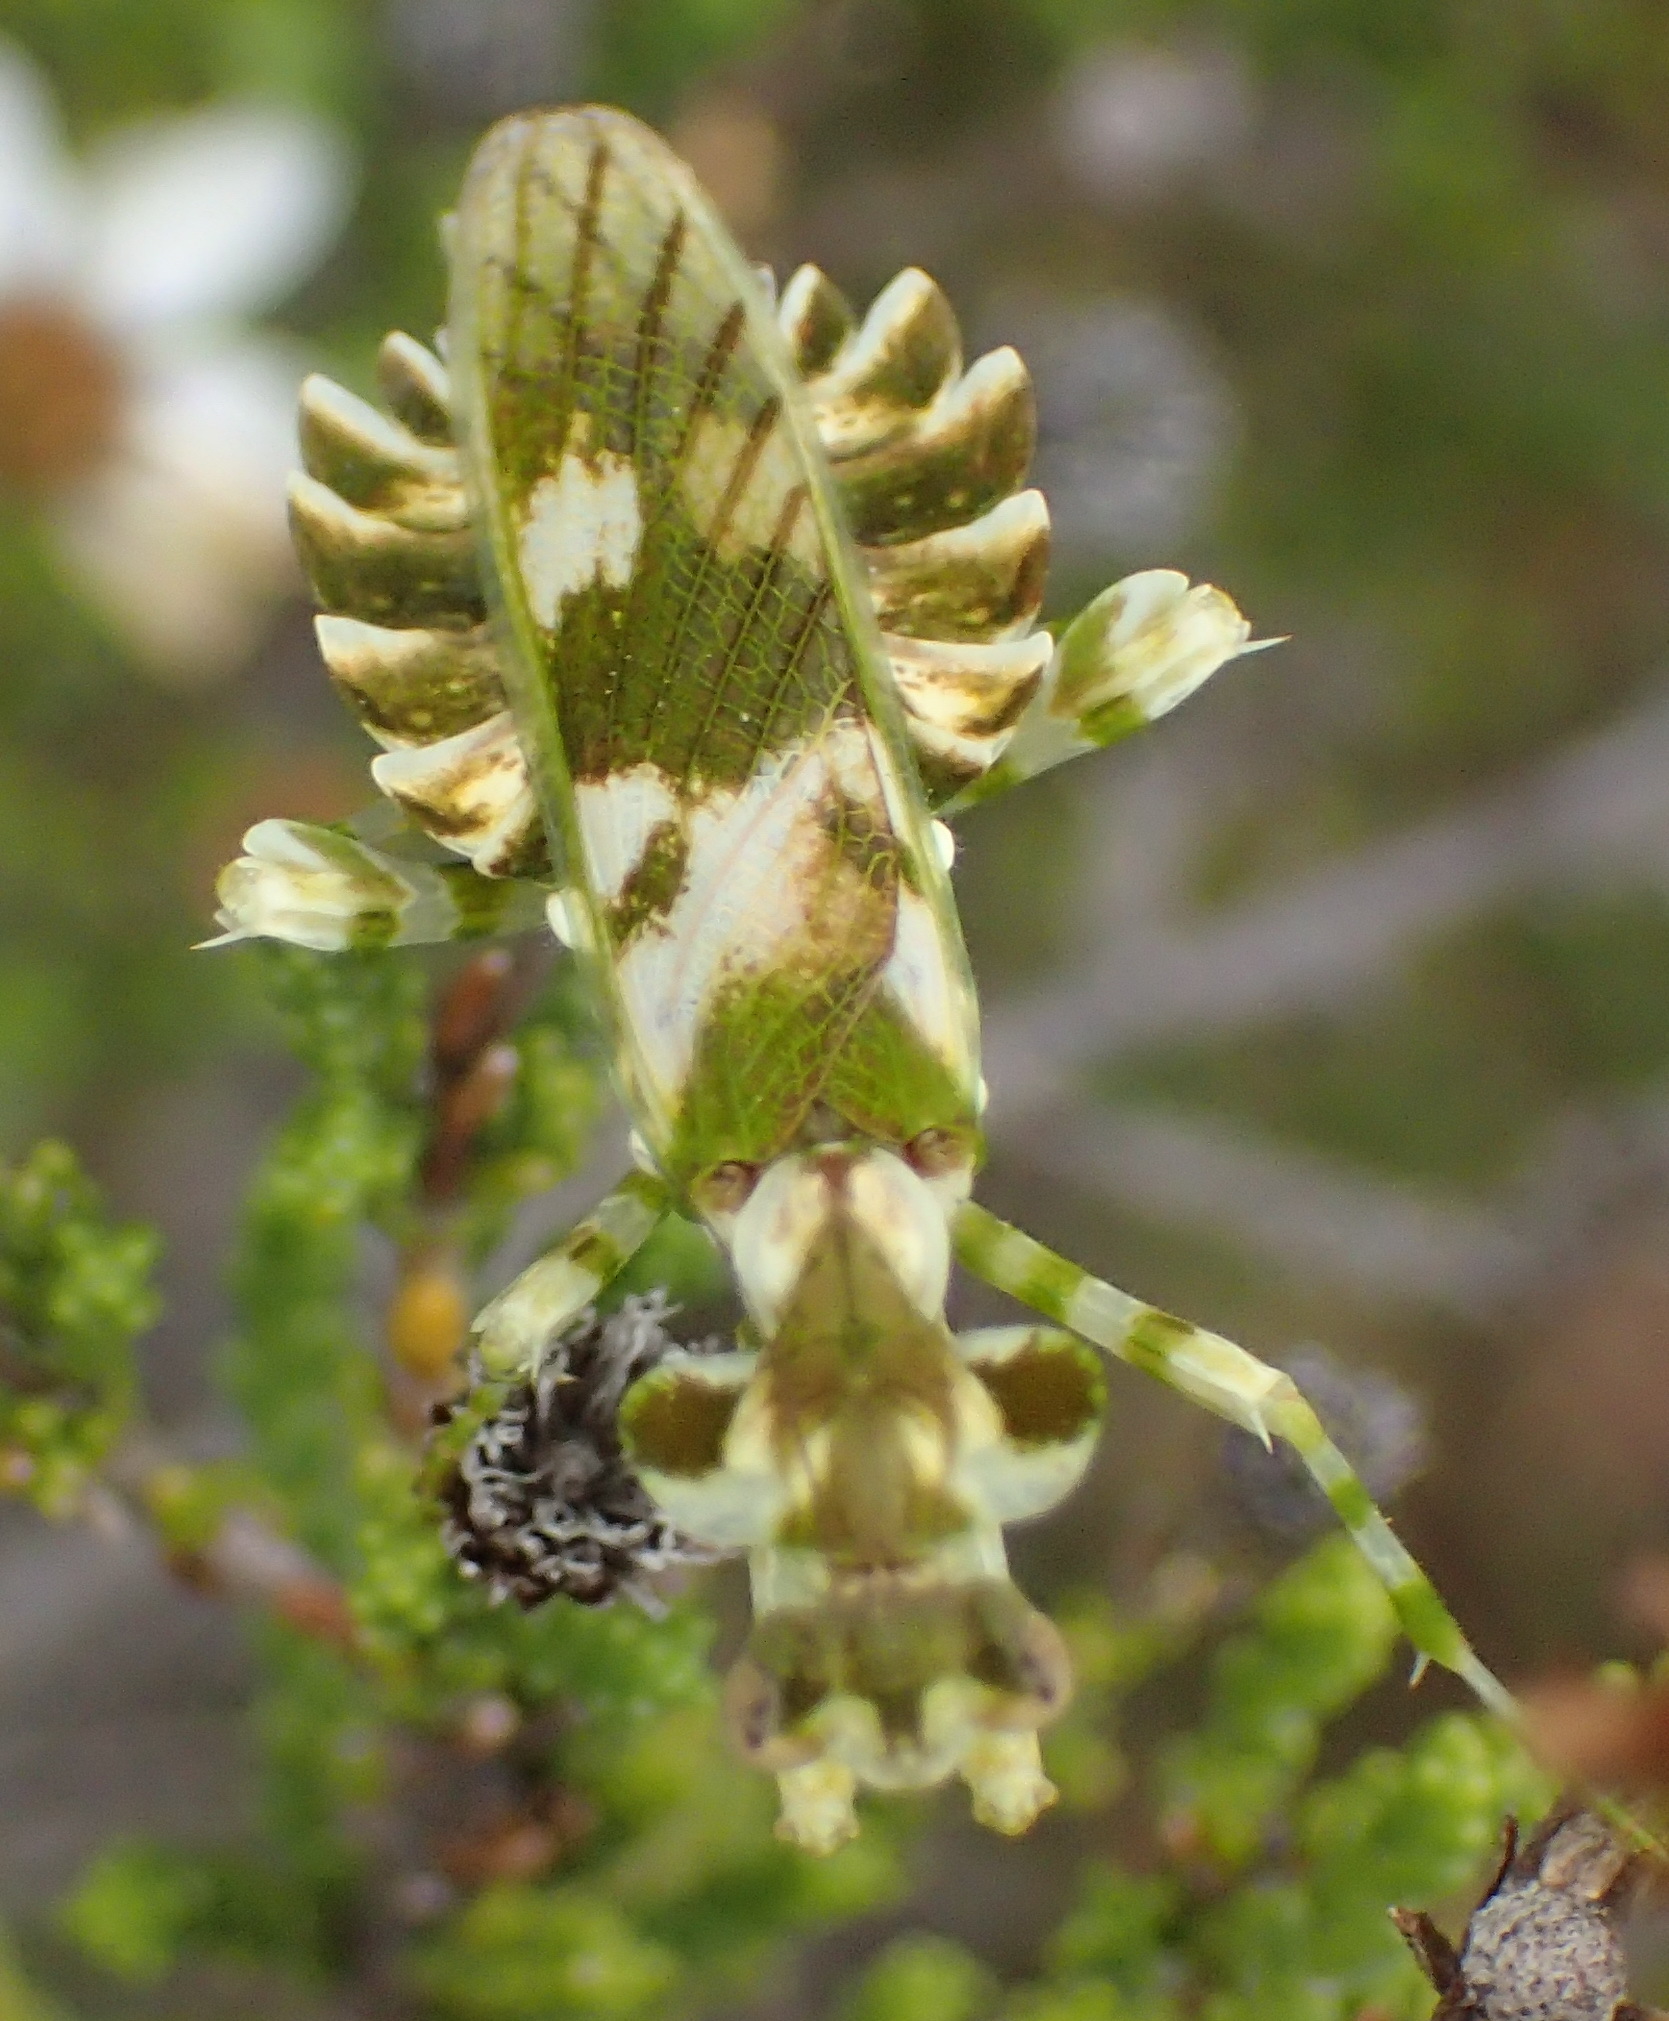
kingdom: Animalia
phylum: Arthropoda
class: Insecta
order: Mantodea
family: Galinthiadidae
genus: Harpagomantis
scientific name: Harpagomantis tricolor
